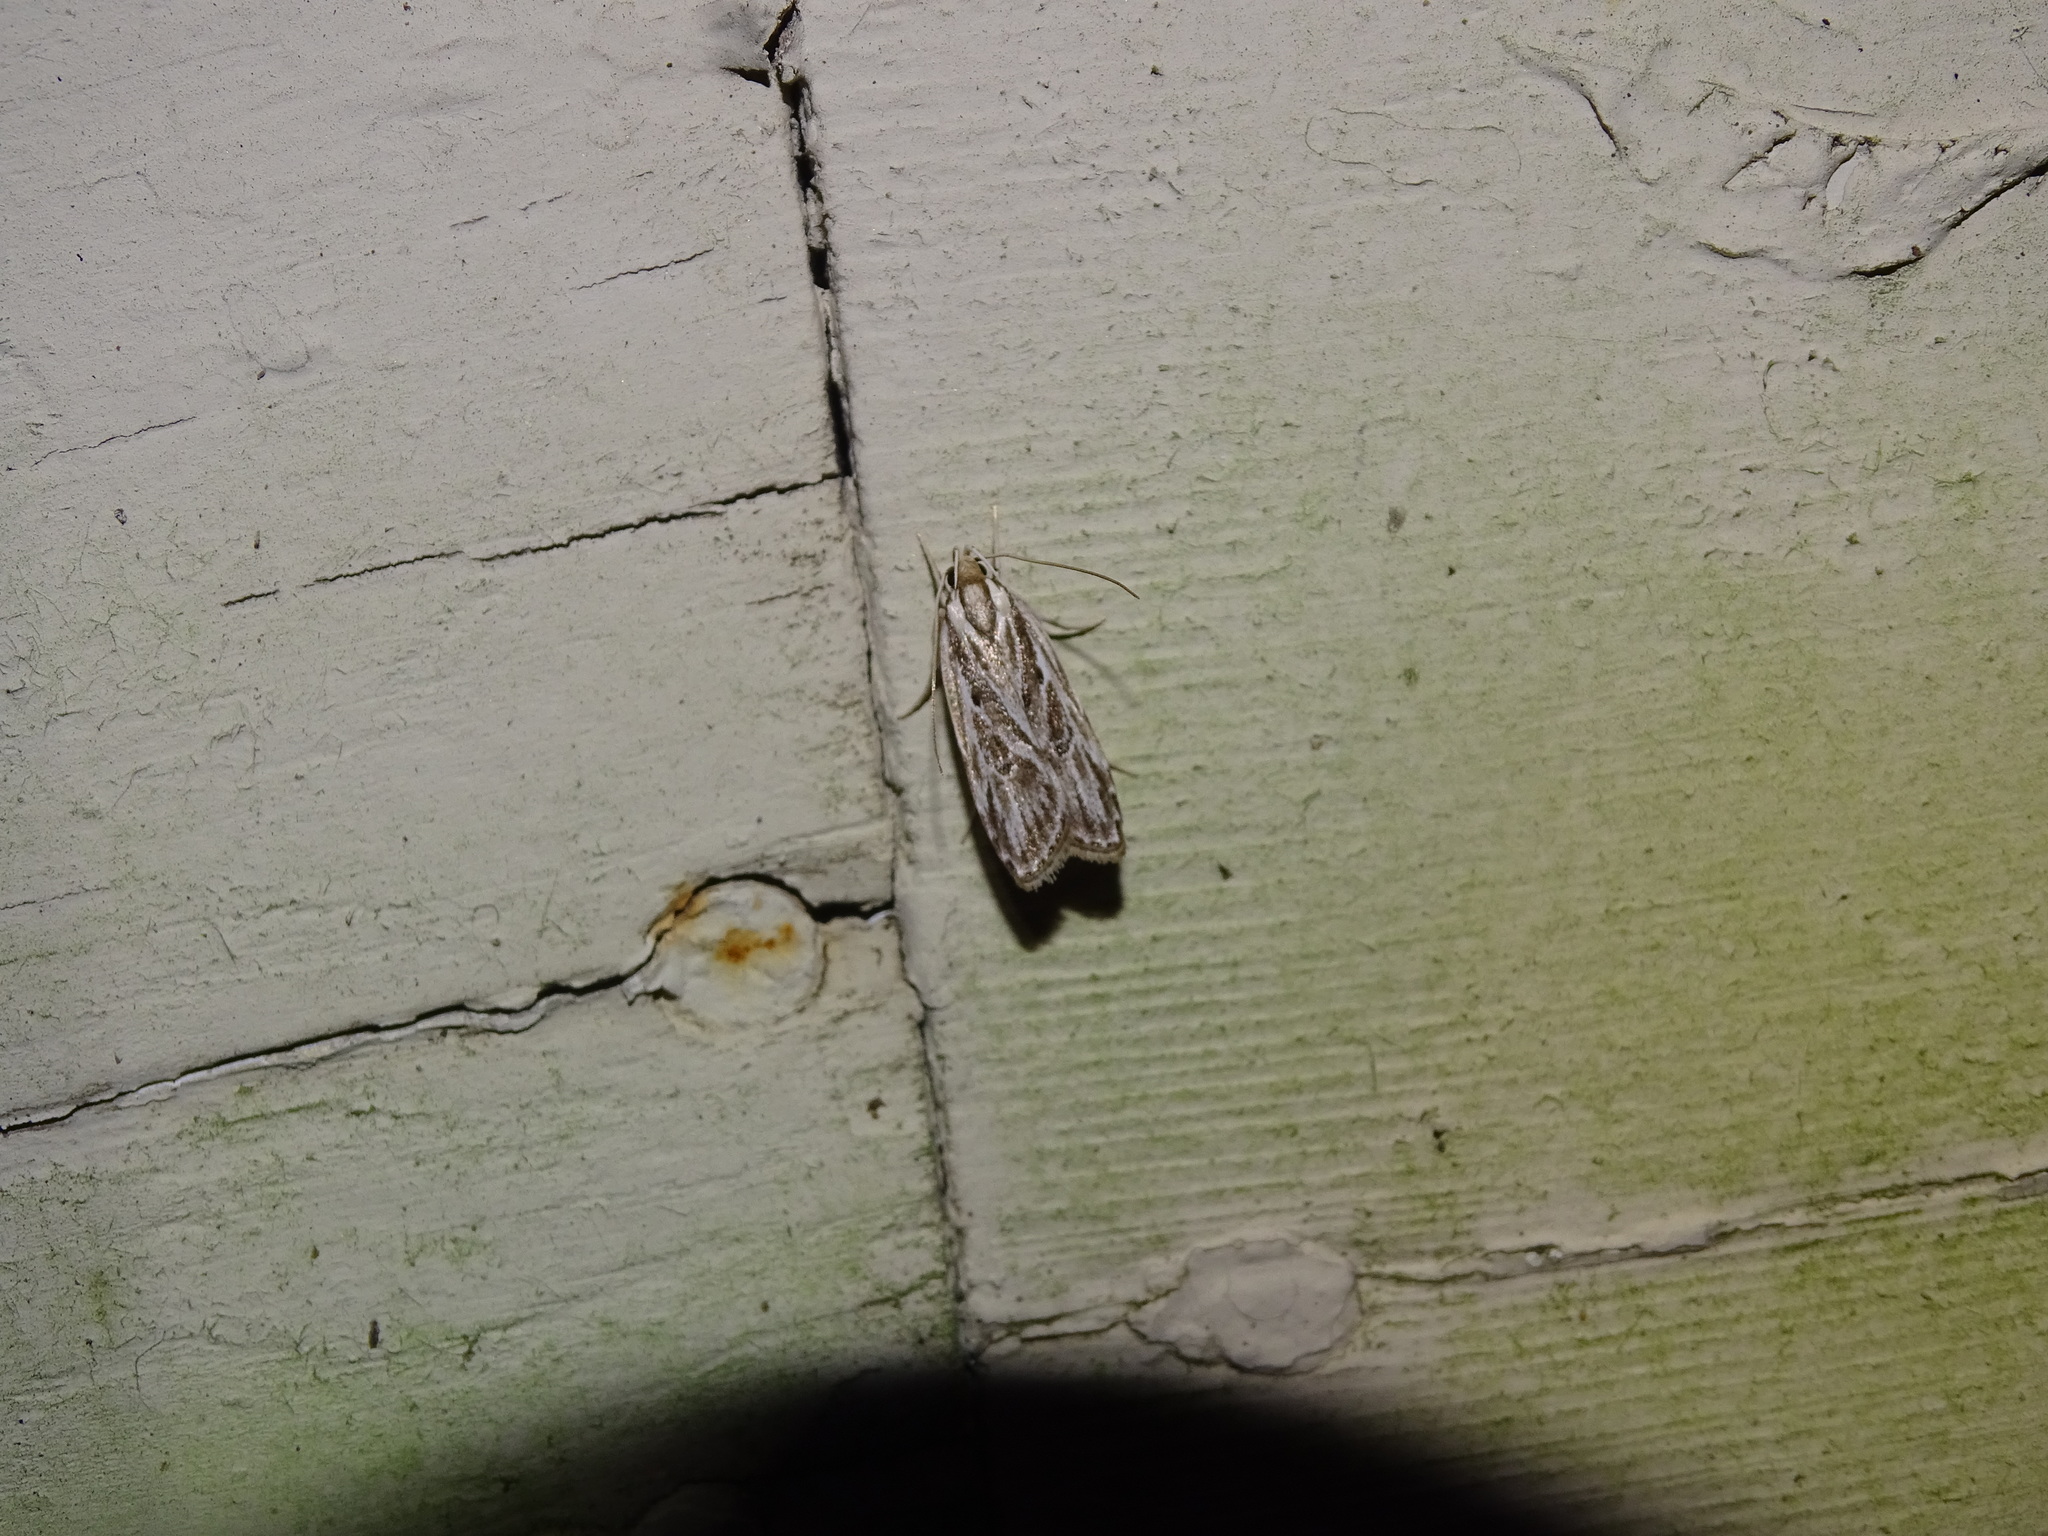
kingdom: Animalia
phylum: Arthropoda
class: Insecta
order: Lepidoptera
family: Depressariidae
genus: Eupragia
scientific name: Eupragia hospita
